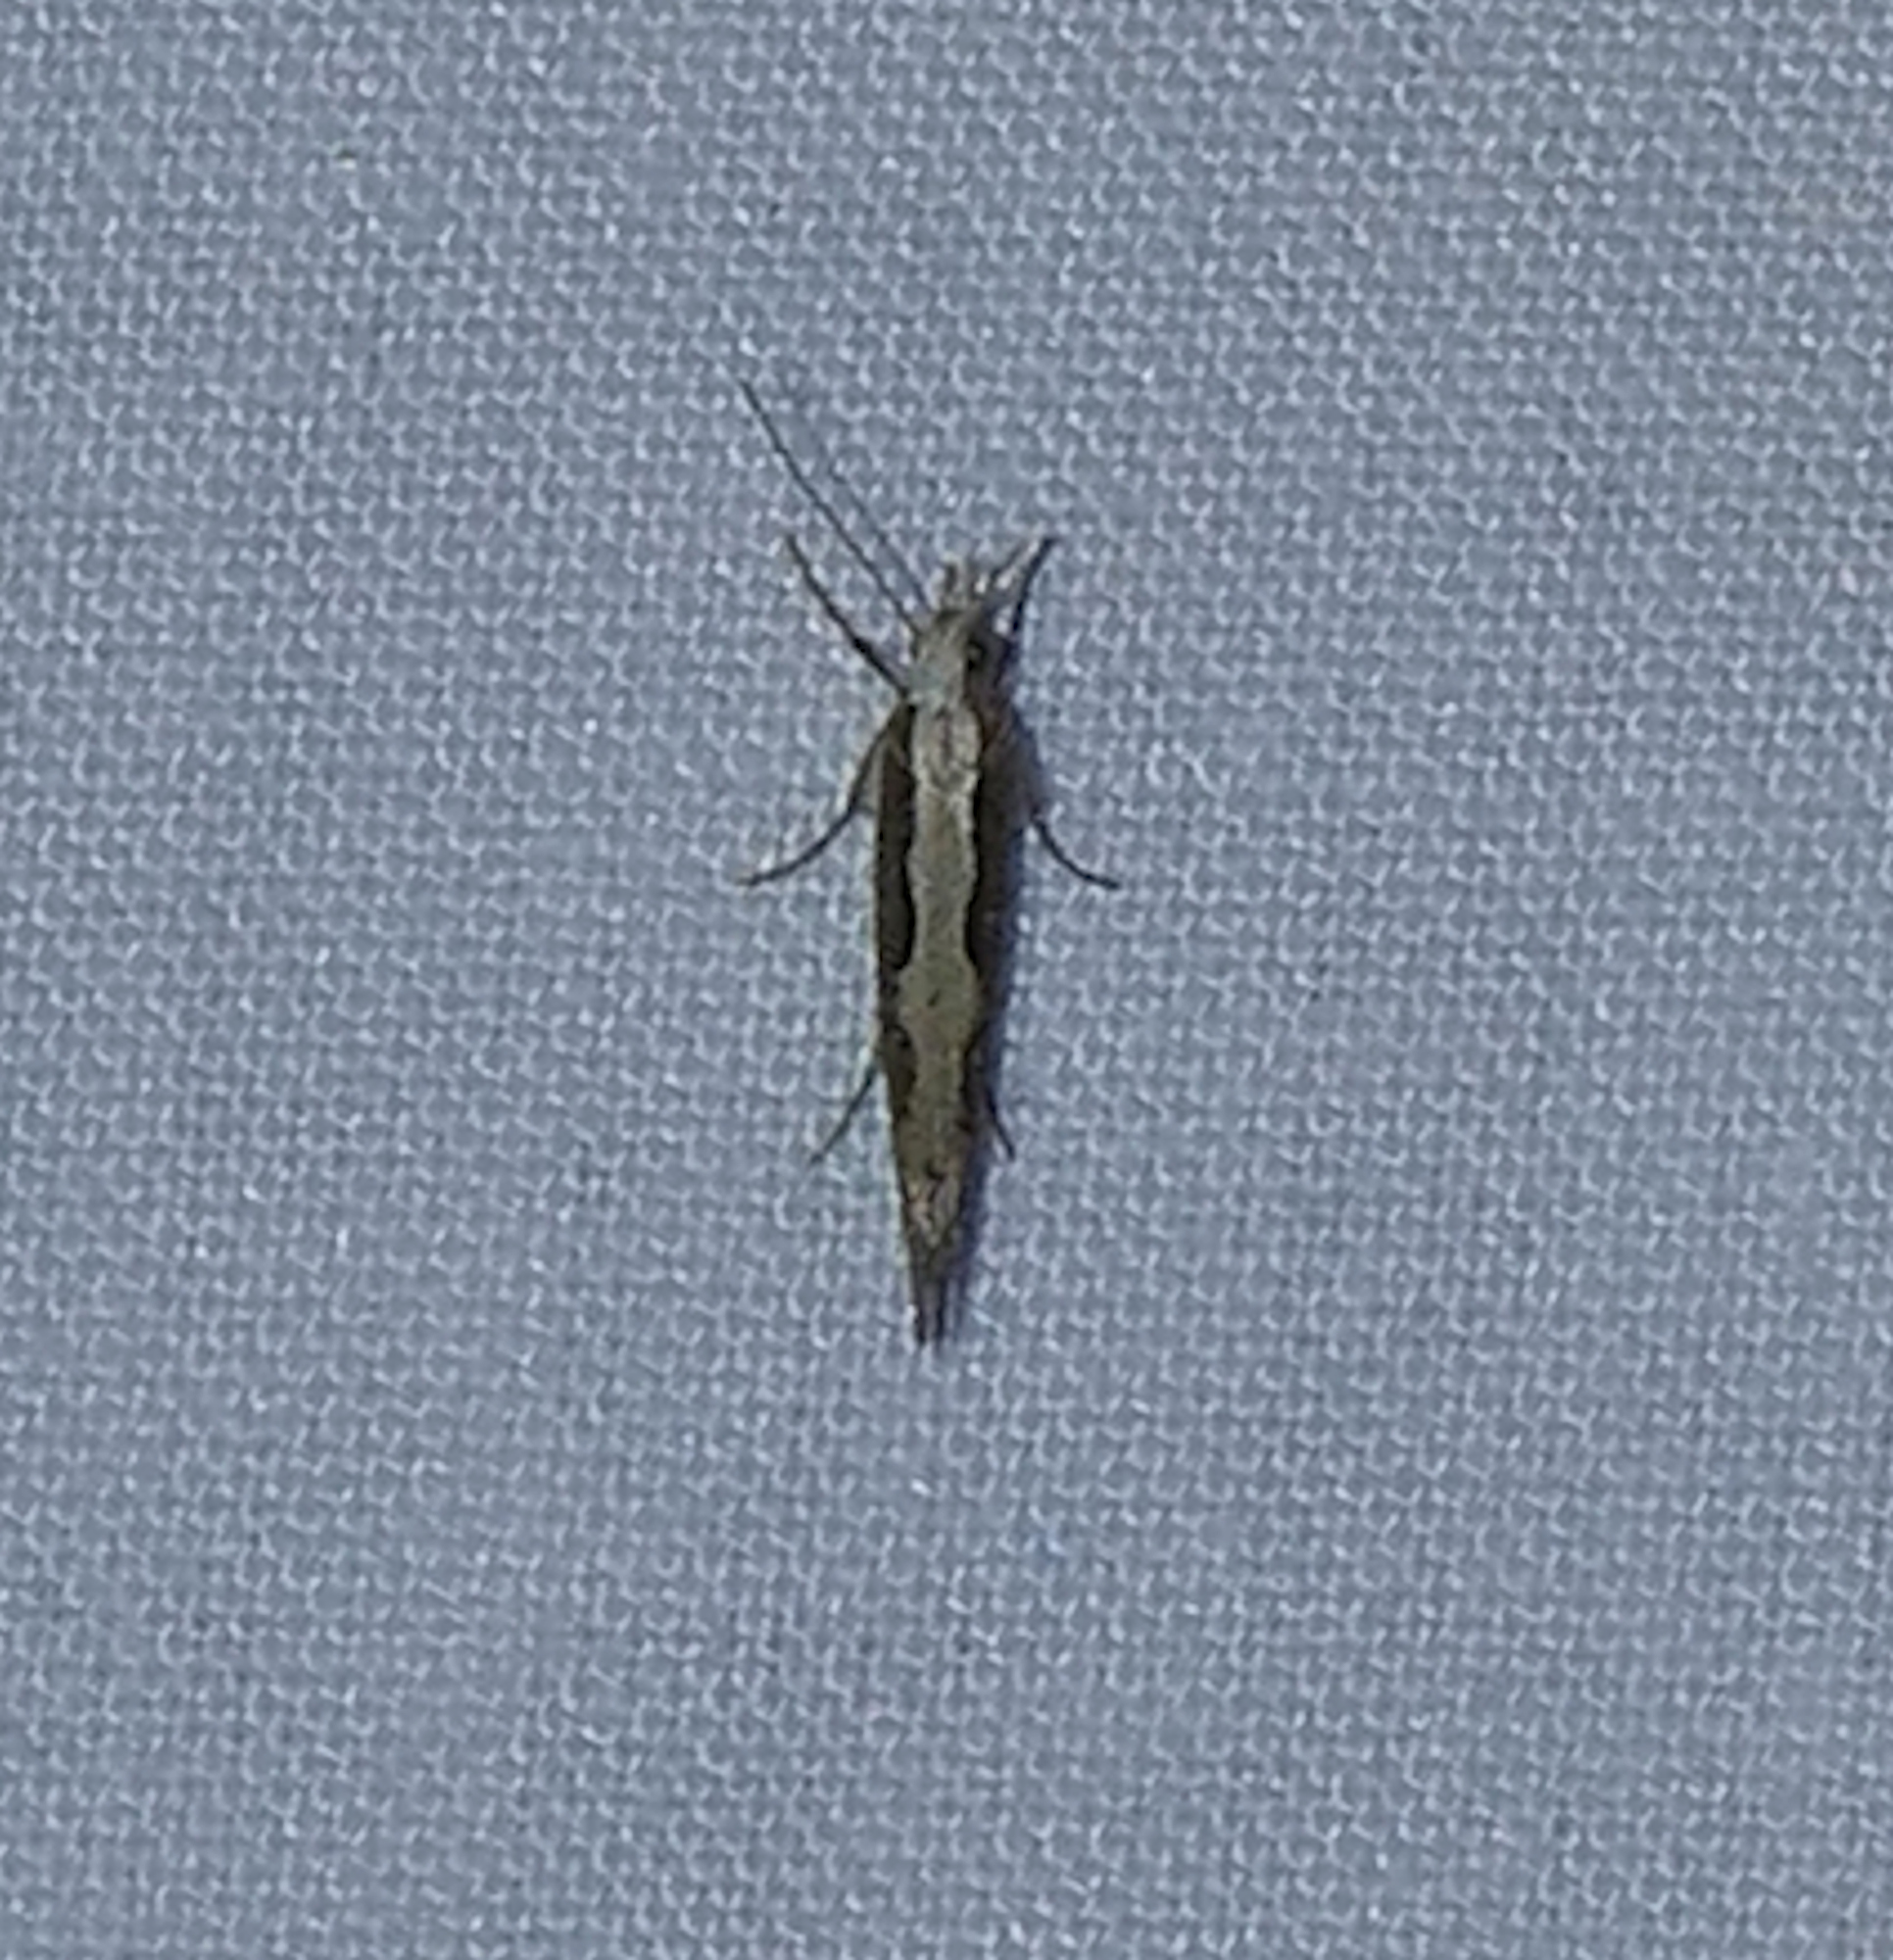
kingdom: Animalia
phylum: Arthropoda
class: Insecta
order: Lepidoptera
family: Plutellidae
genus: Plutella
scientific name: Plutella xylostella
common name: Diamond-back moth
